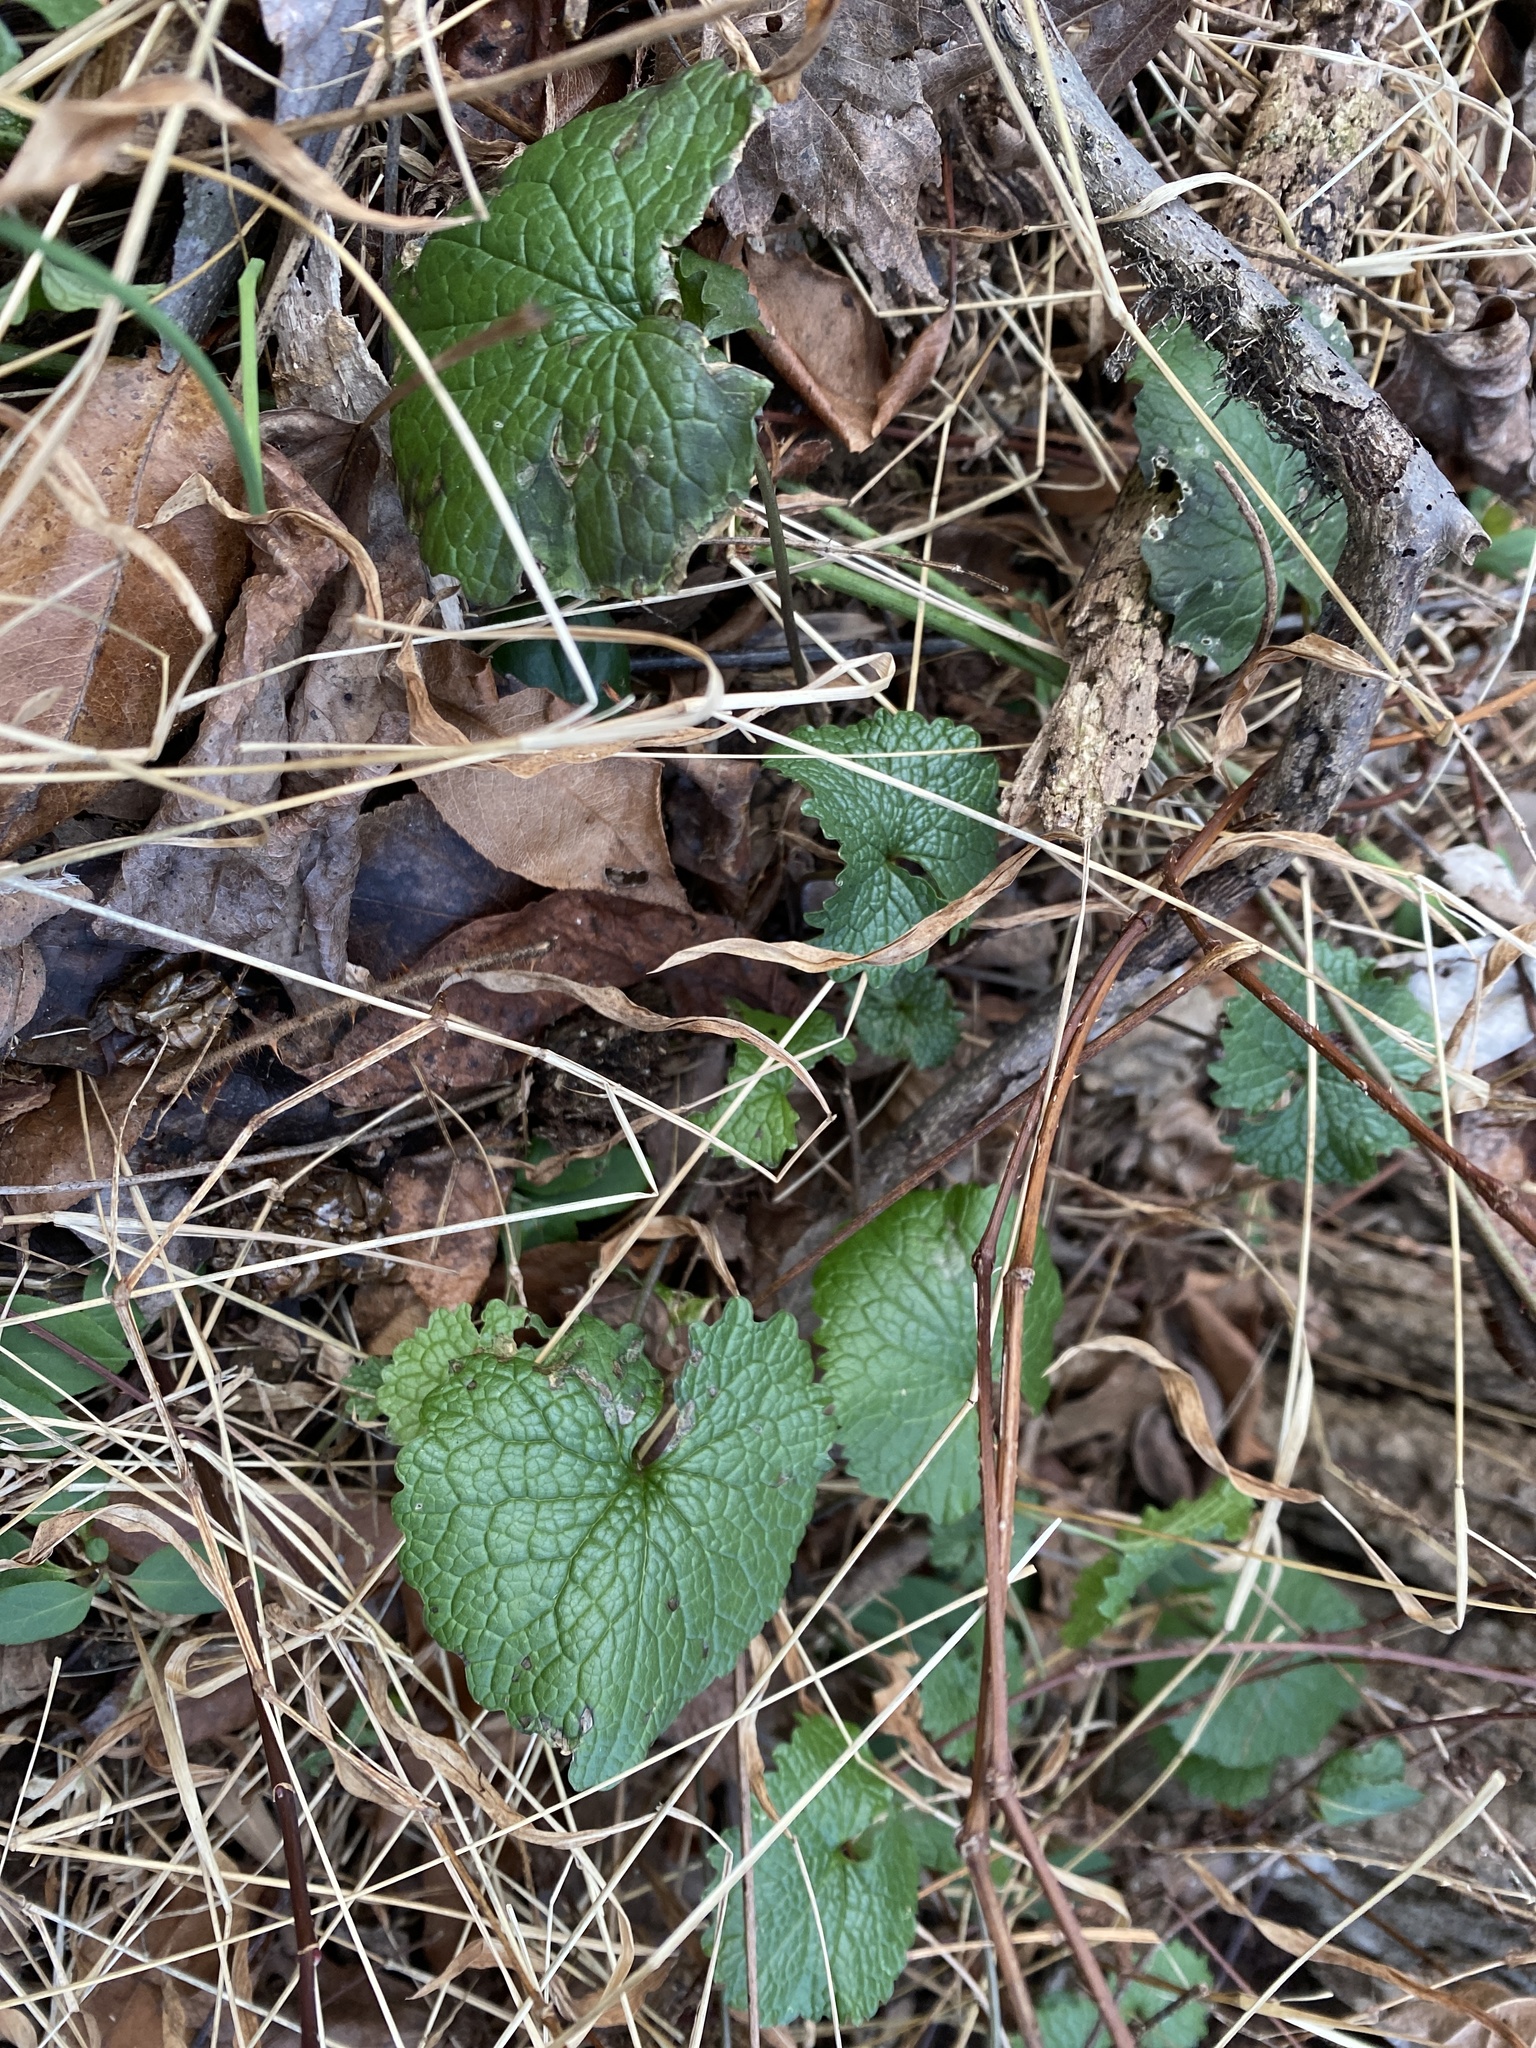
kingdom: Plantae
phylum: Tracheophyta
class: Magnoliopsida
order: Brassicales
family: Brassicaceae
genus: Alliaria
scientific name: Alliaria petiolata
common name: Garlic mustard
